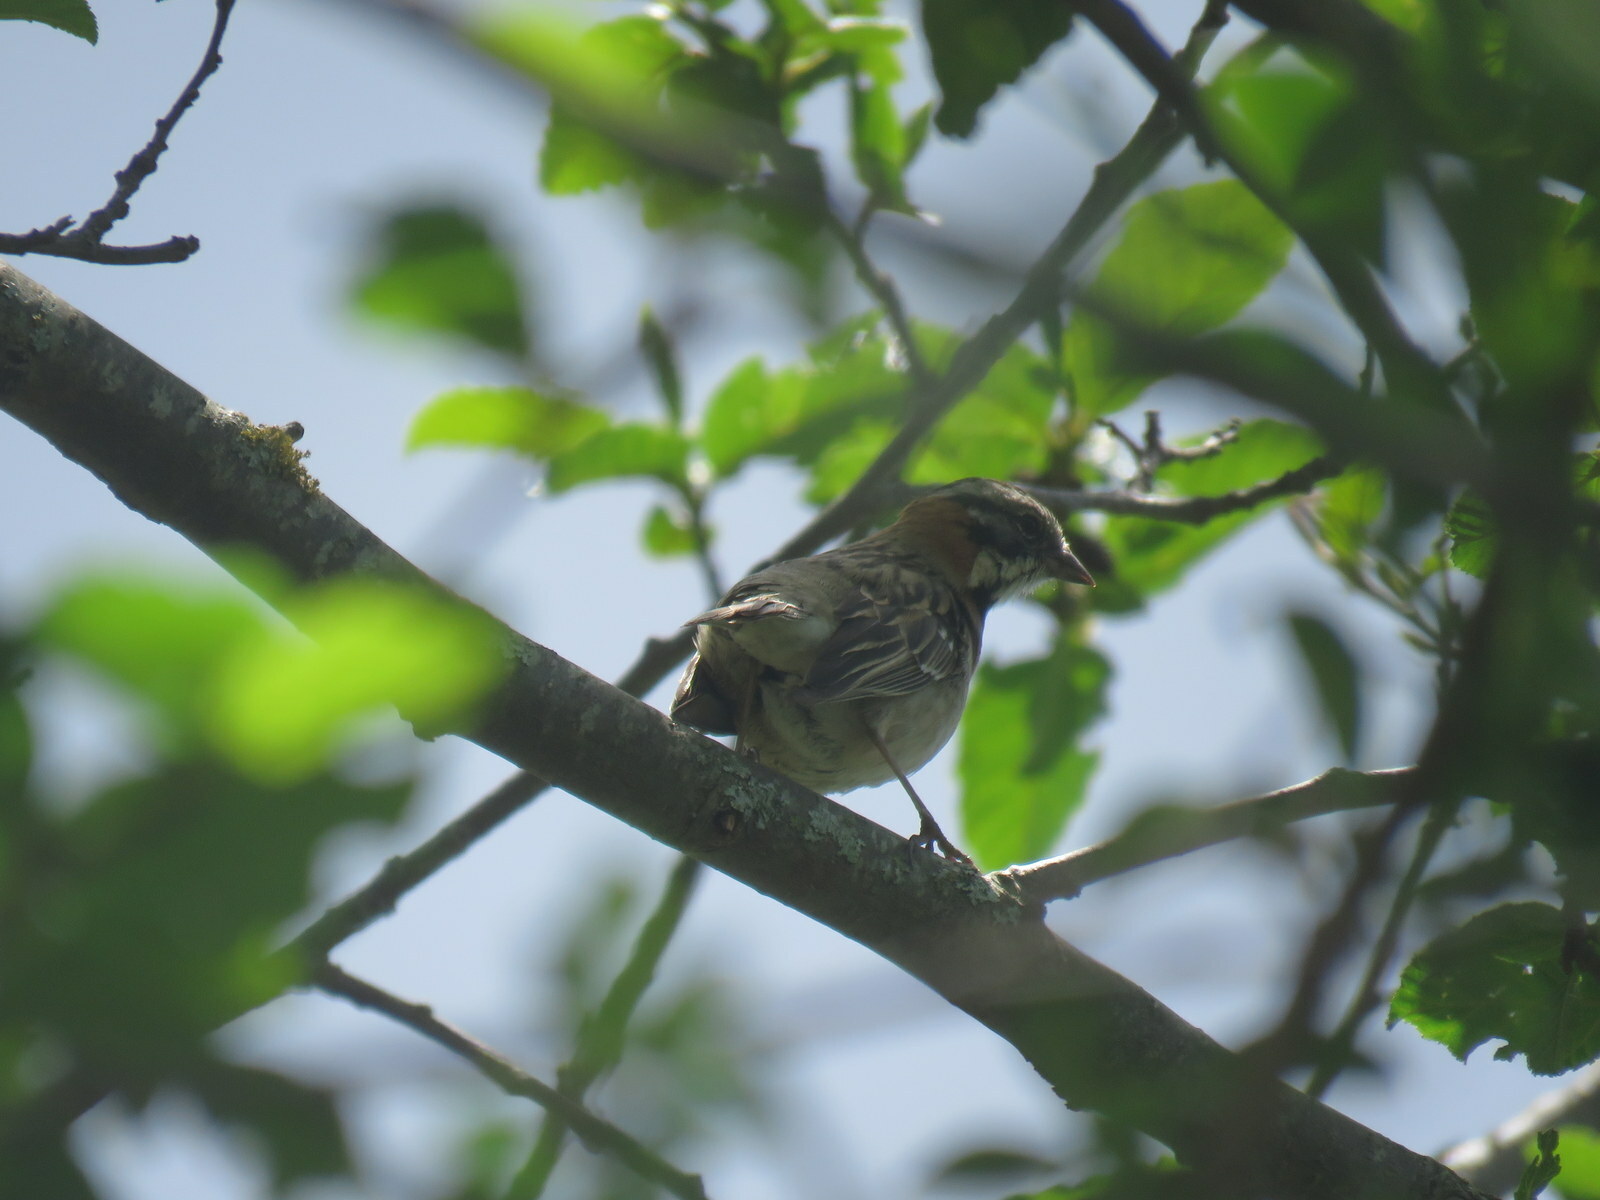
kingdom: Animalia
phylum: Chordata
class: Aves
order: Passeriformes
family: Passerellidae
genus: Zonotrichia
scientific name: Zonotrichia capensis
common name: Rufous-collared sparrow
